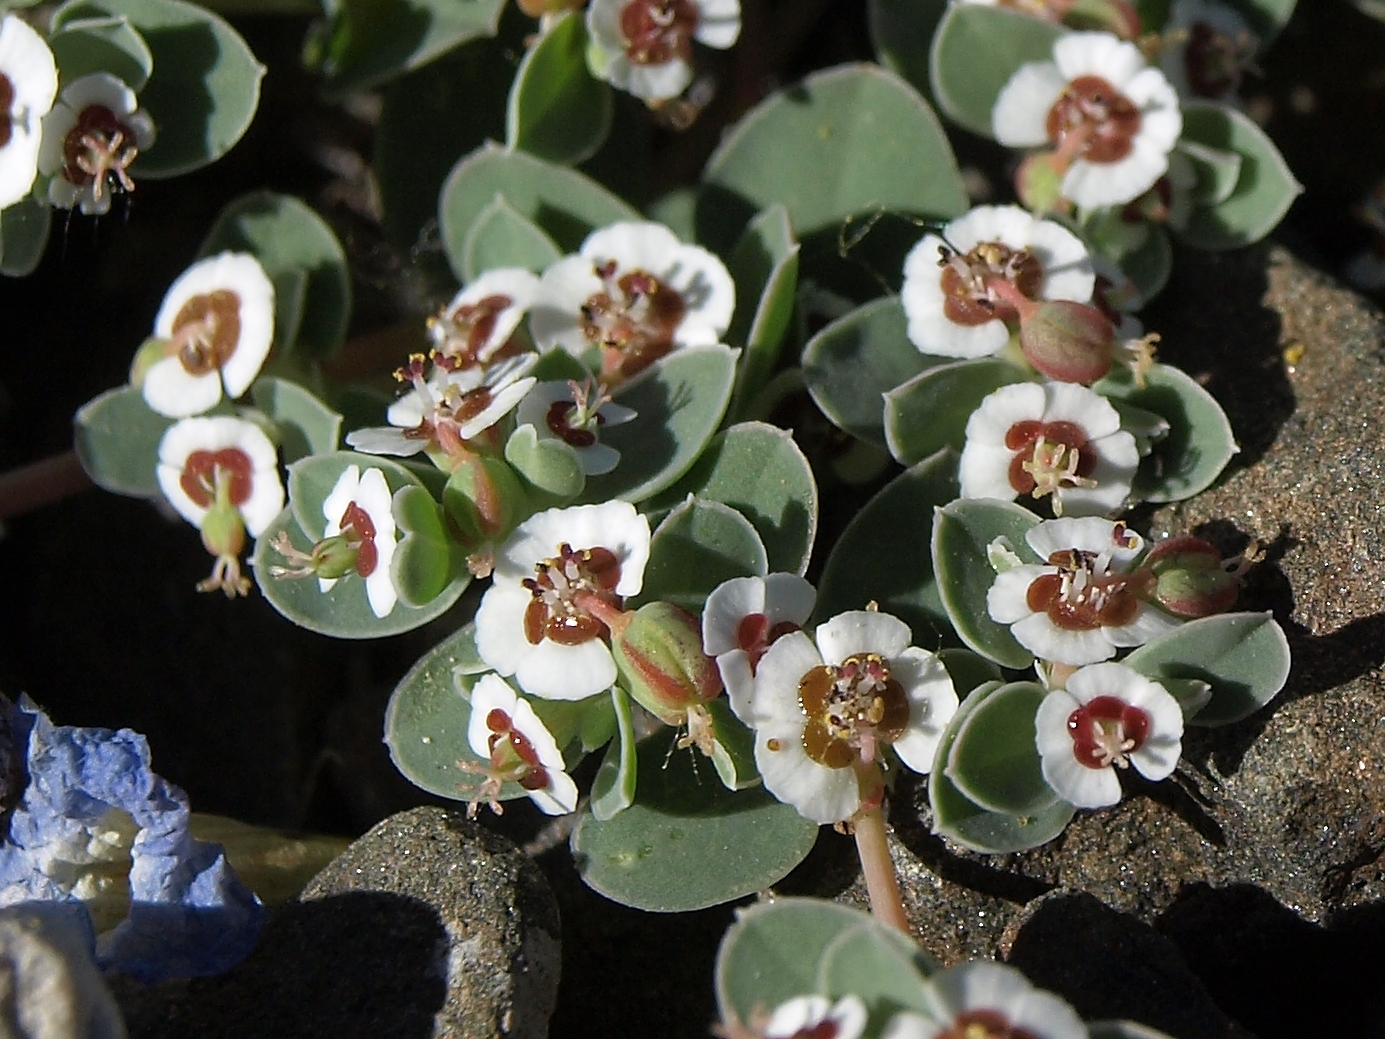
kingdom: Plantae
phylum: Tracheophyta
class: Magnoliopsida
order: Malpighiales
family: Euphorbiaceae
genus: Euphorbia
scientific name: Euphorbia albomarginata
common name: Whitemargin sandmat
